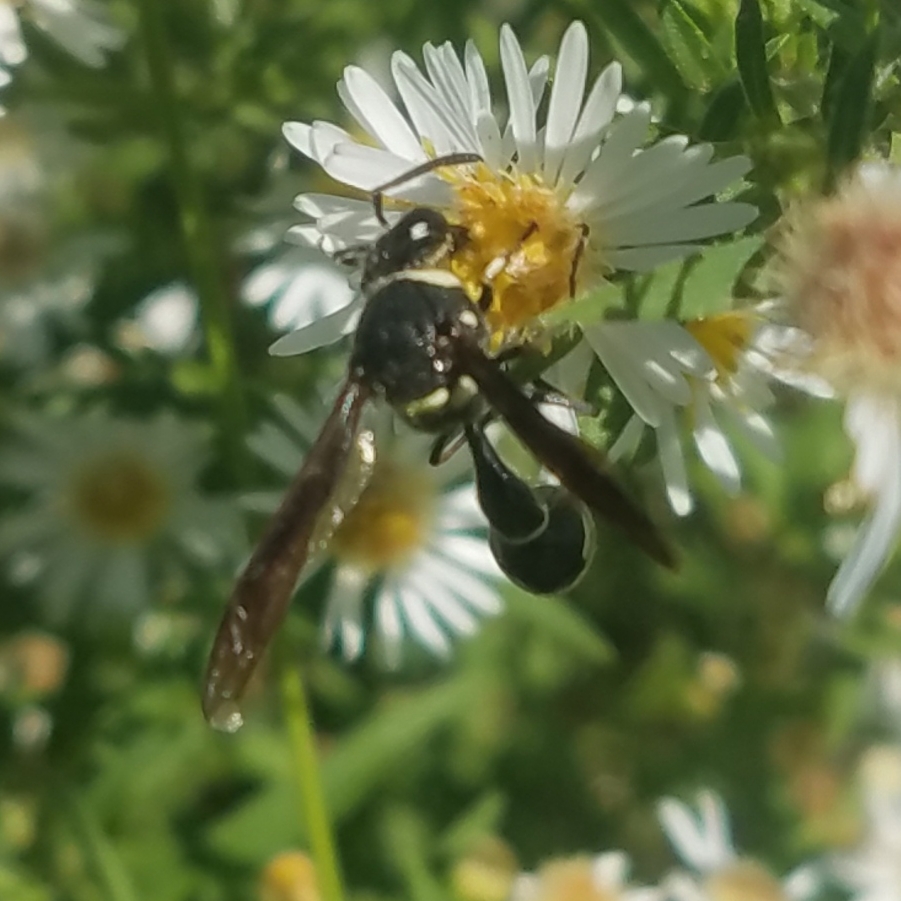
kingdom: Animalia
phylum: Arthropoda
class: Insecta
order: Hymenoptera
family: Vespidae
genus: Eumenes
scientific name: Eumenes fraternus
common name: Fraternal potter wasp
